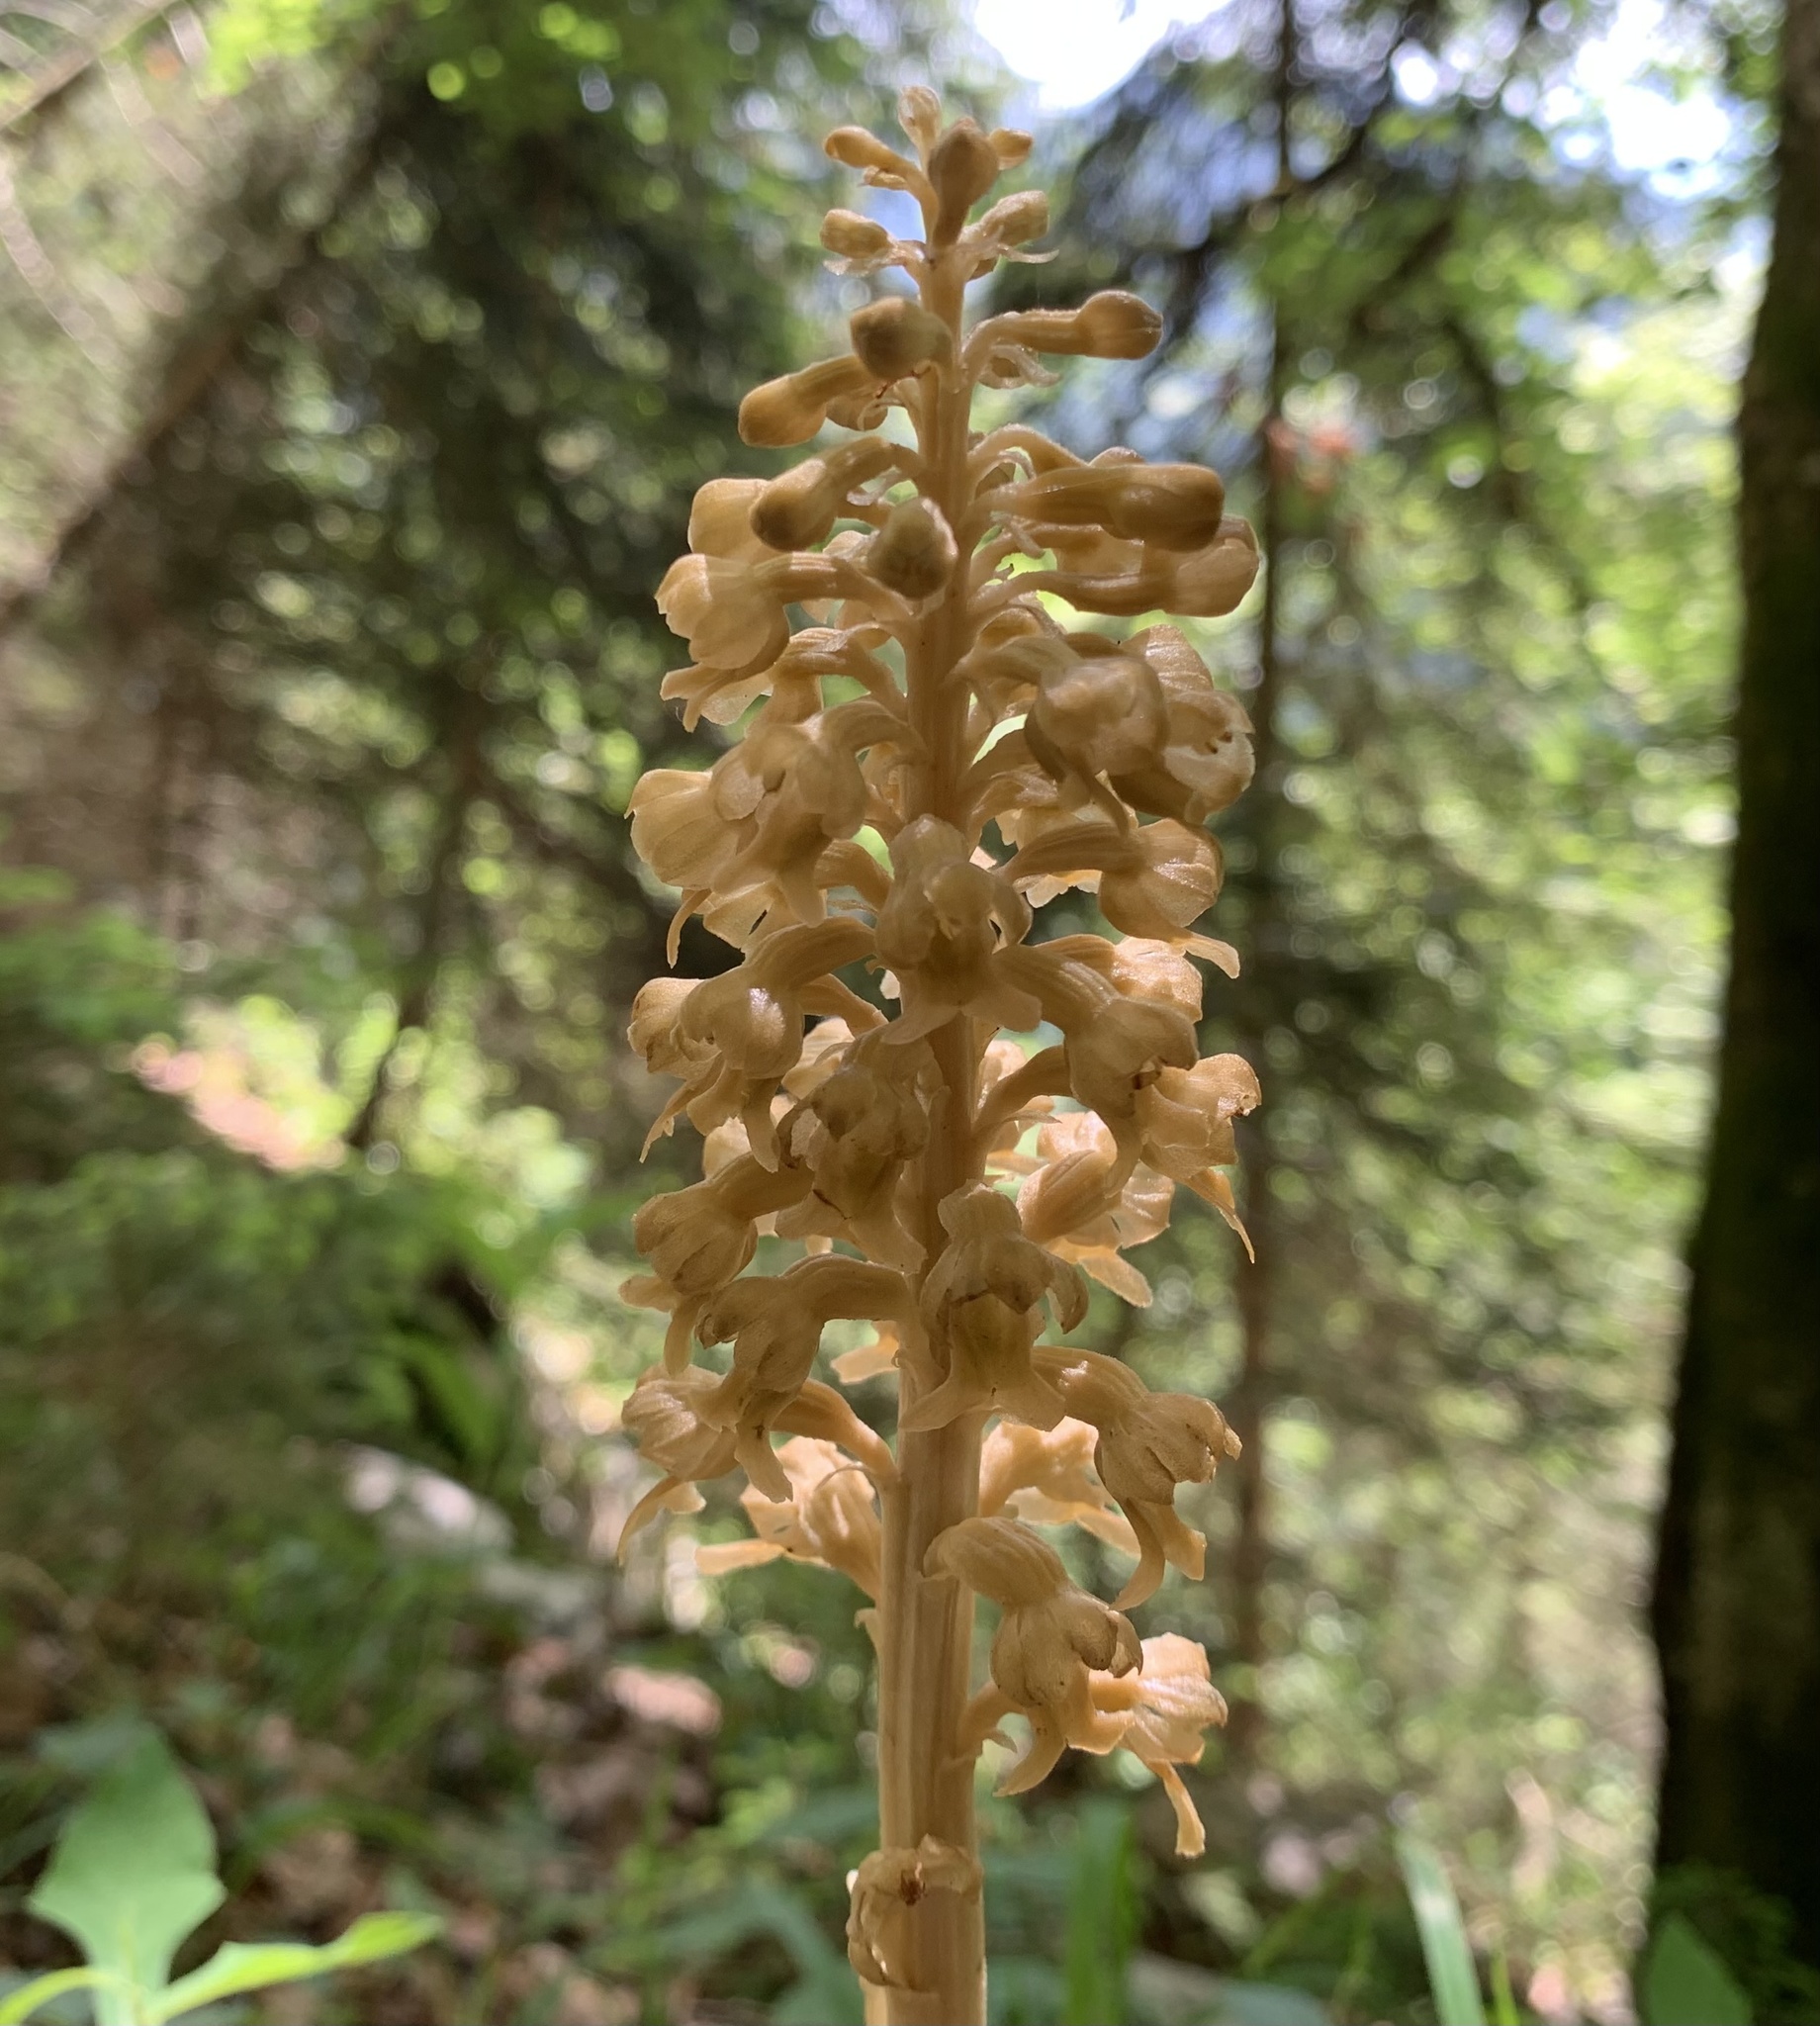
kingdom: Plantae
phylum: Tracheophyta
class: Liliopsida
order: Asparagales
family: Orchidaceae
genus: Neottia
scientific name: Neottia nidus-avis
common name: Bird's-nest orchid
